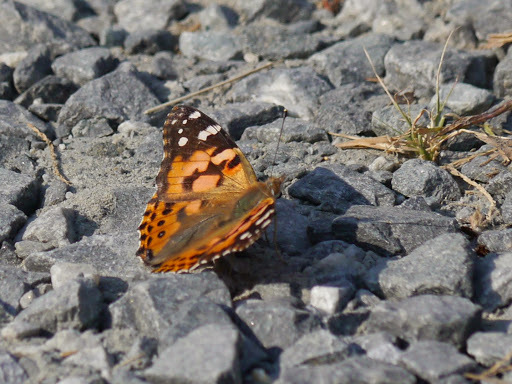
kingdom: Animalia
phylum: Arthropoda
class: Insecta
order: Lepidoptera
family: Nymphalidae
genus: Vanessa
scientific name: Vanessa cardui
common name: Painted lady
